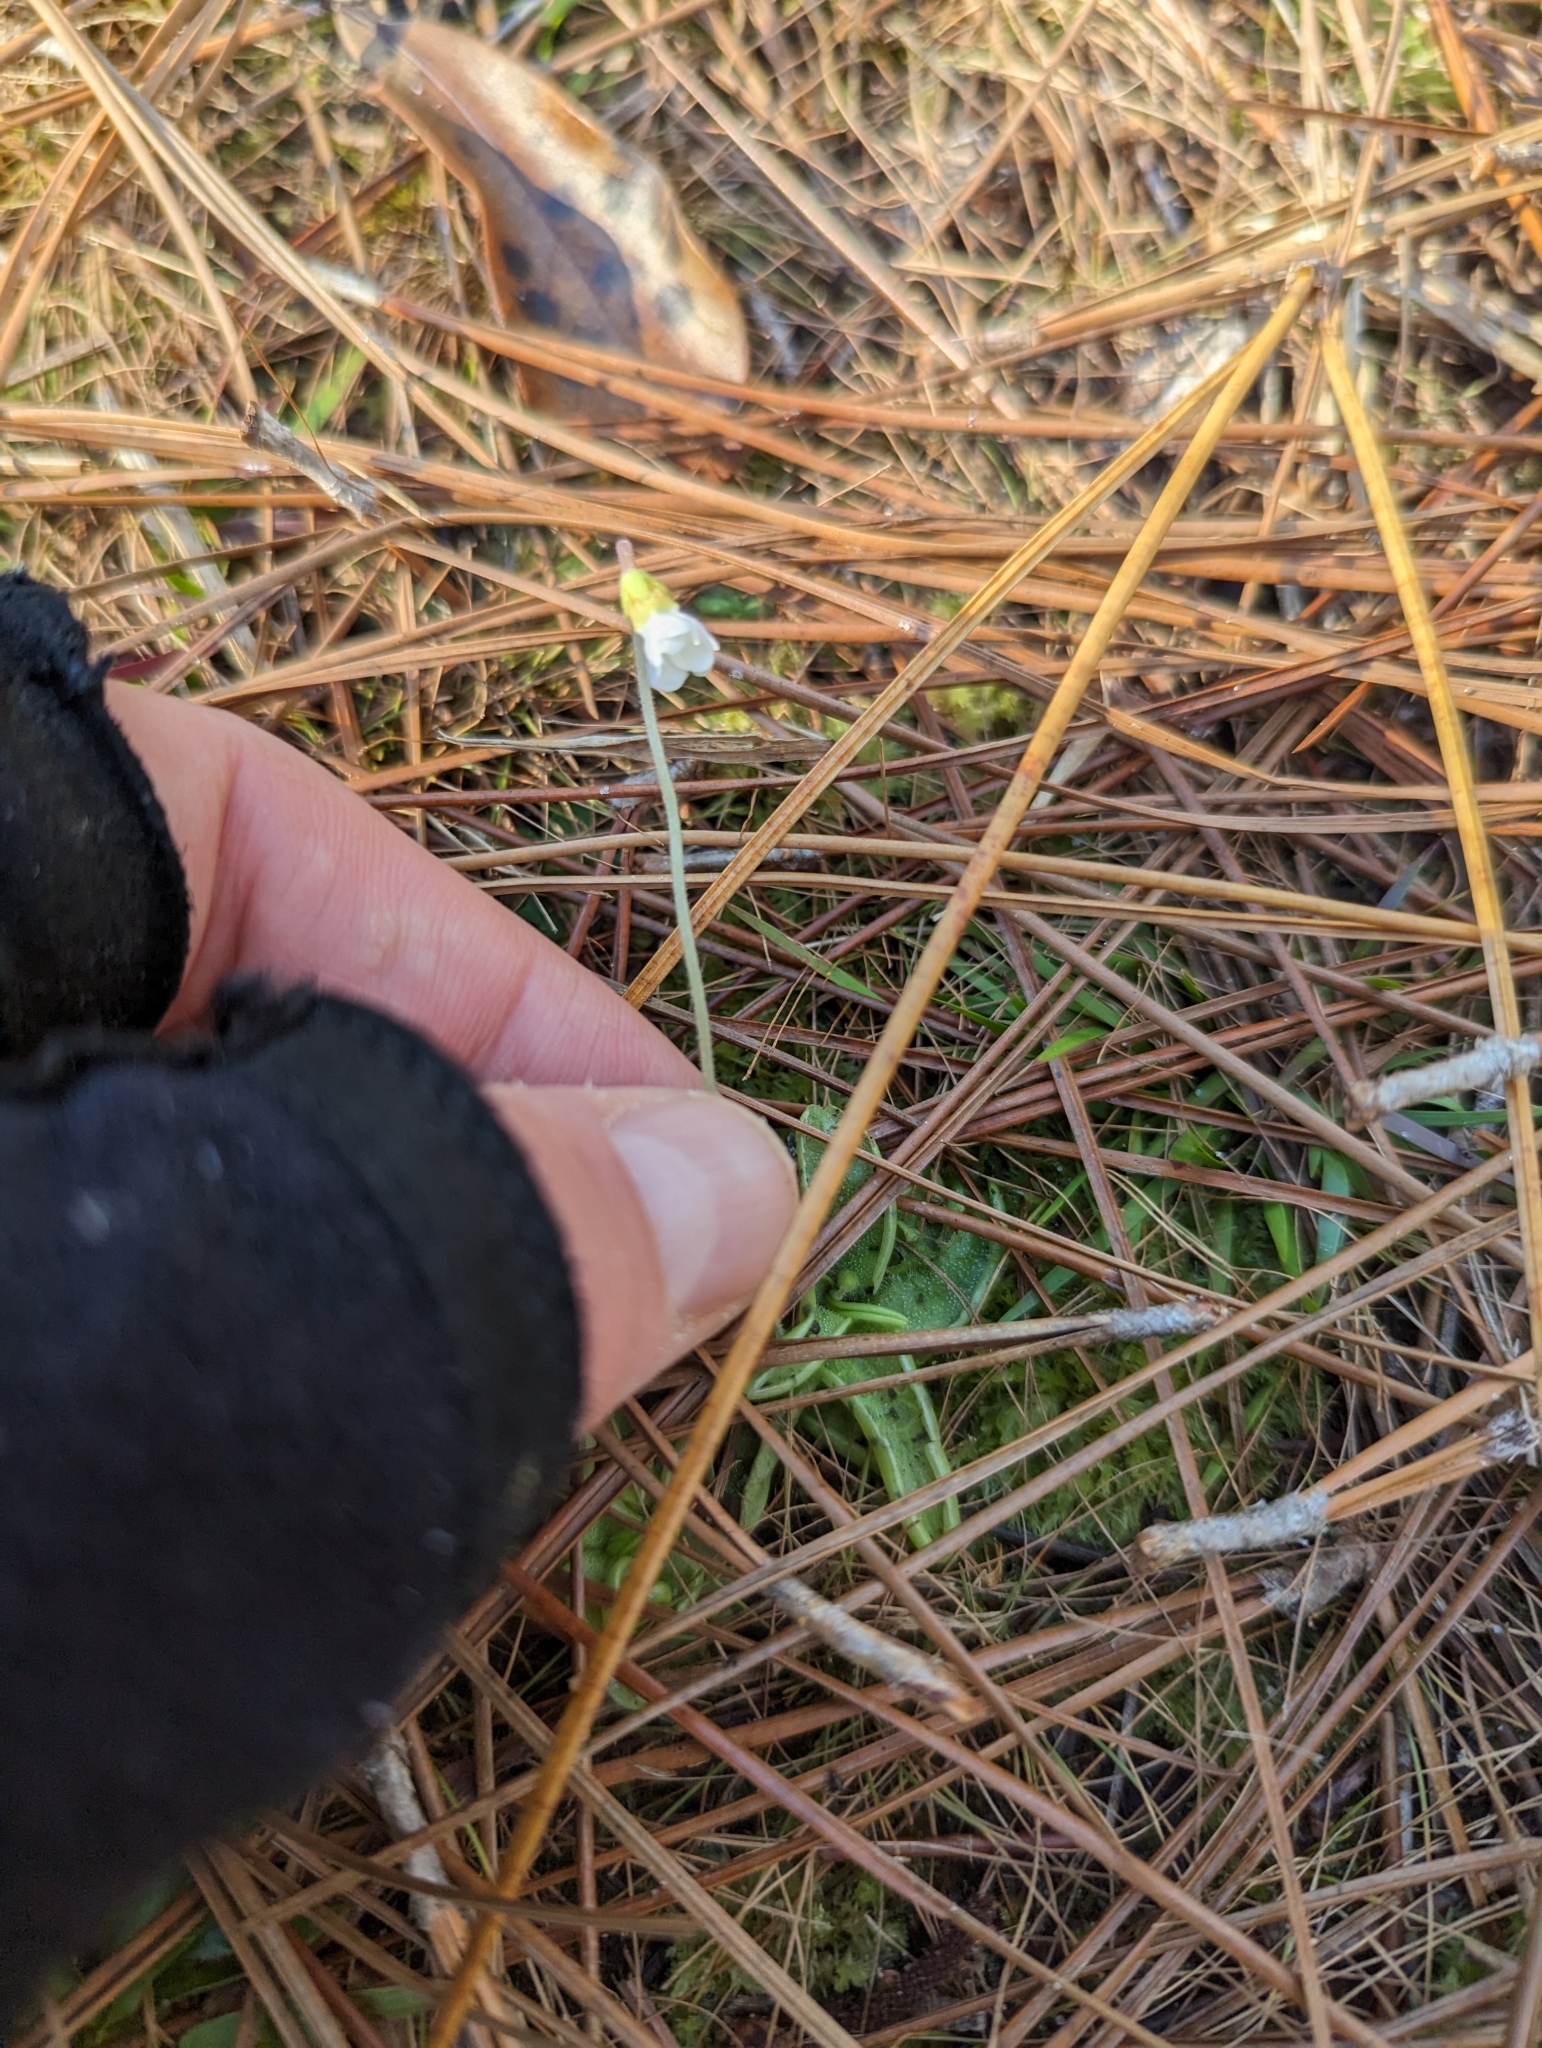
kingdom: Plantae
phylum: Tracheophyta
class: Magnoliopsida
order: Lamiales
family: Lentibulariaceae
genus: Pinguicula
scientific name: Pinguicula pumila
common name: Small butterwort
